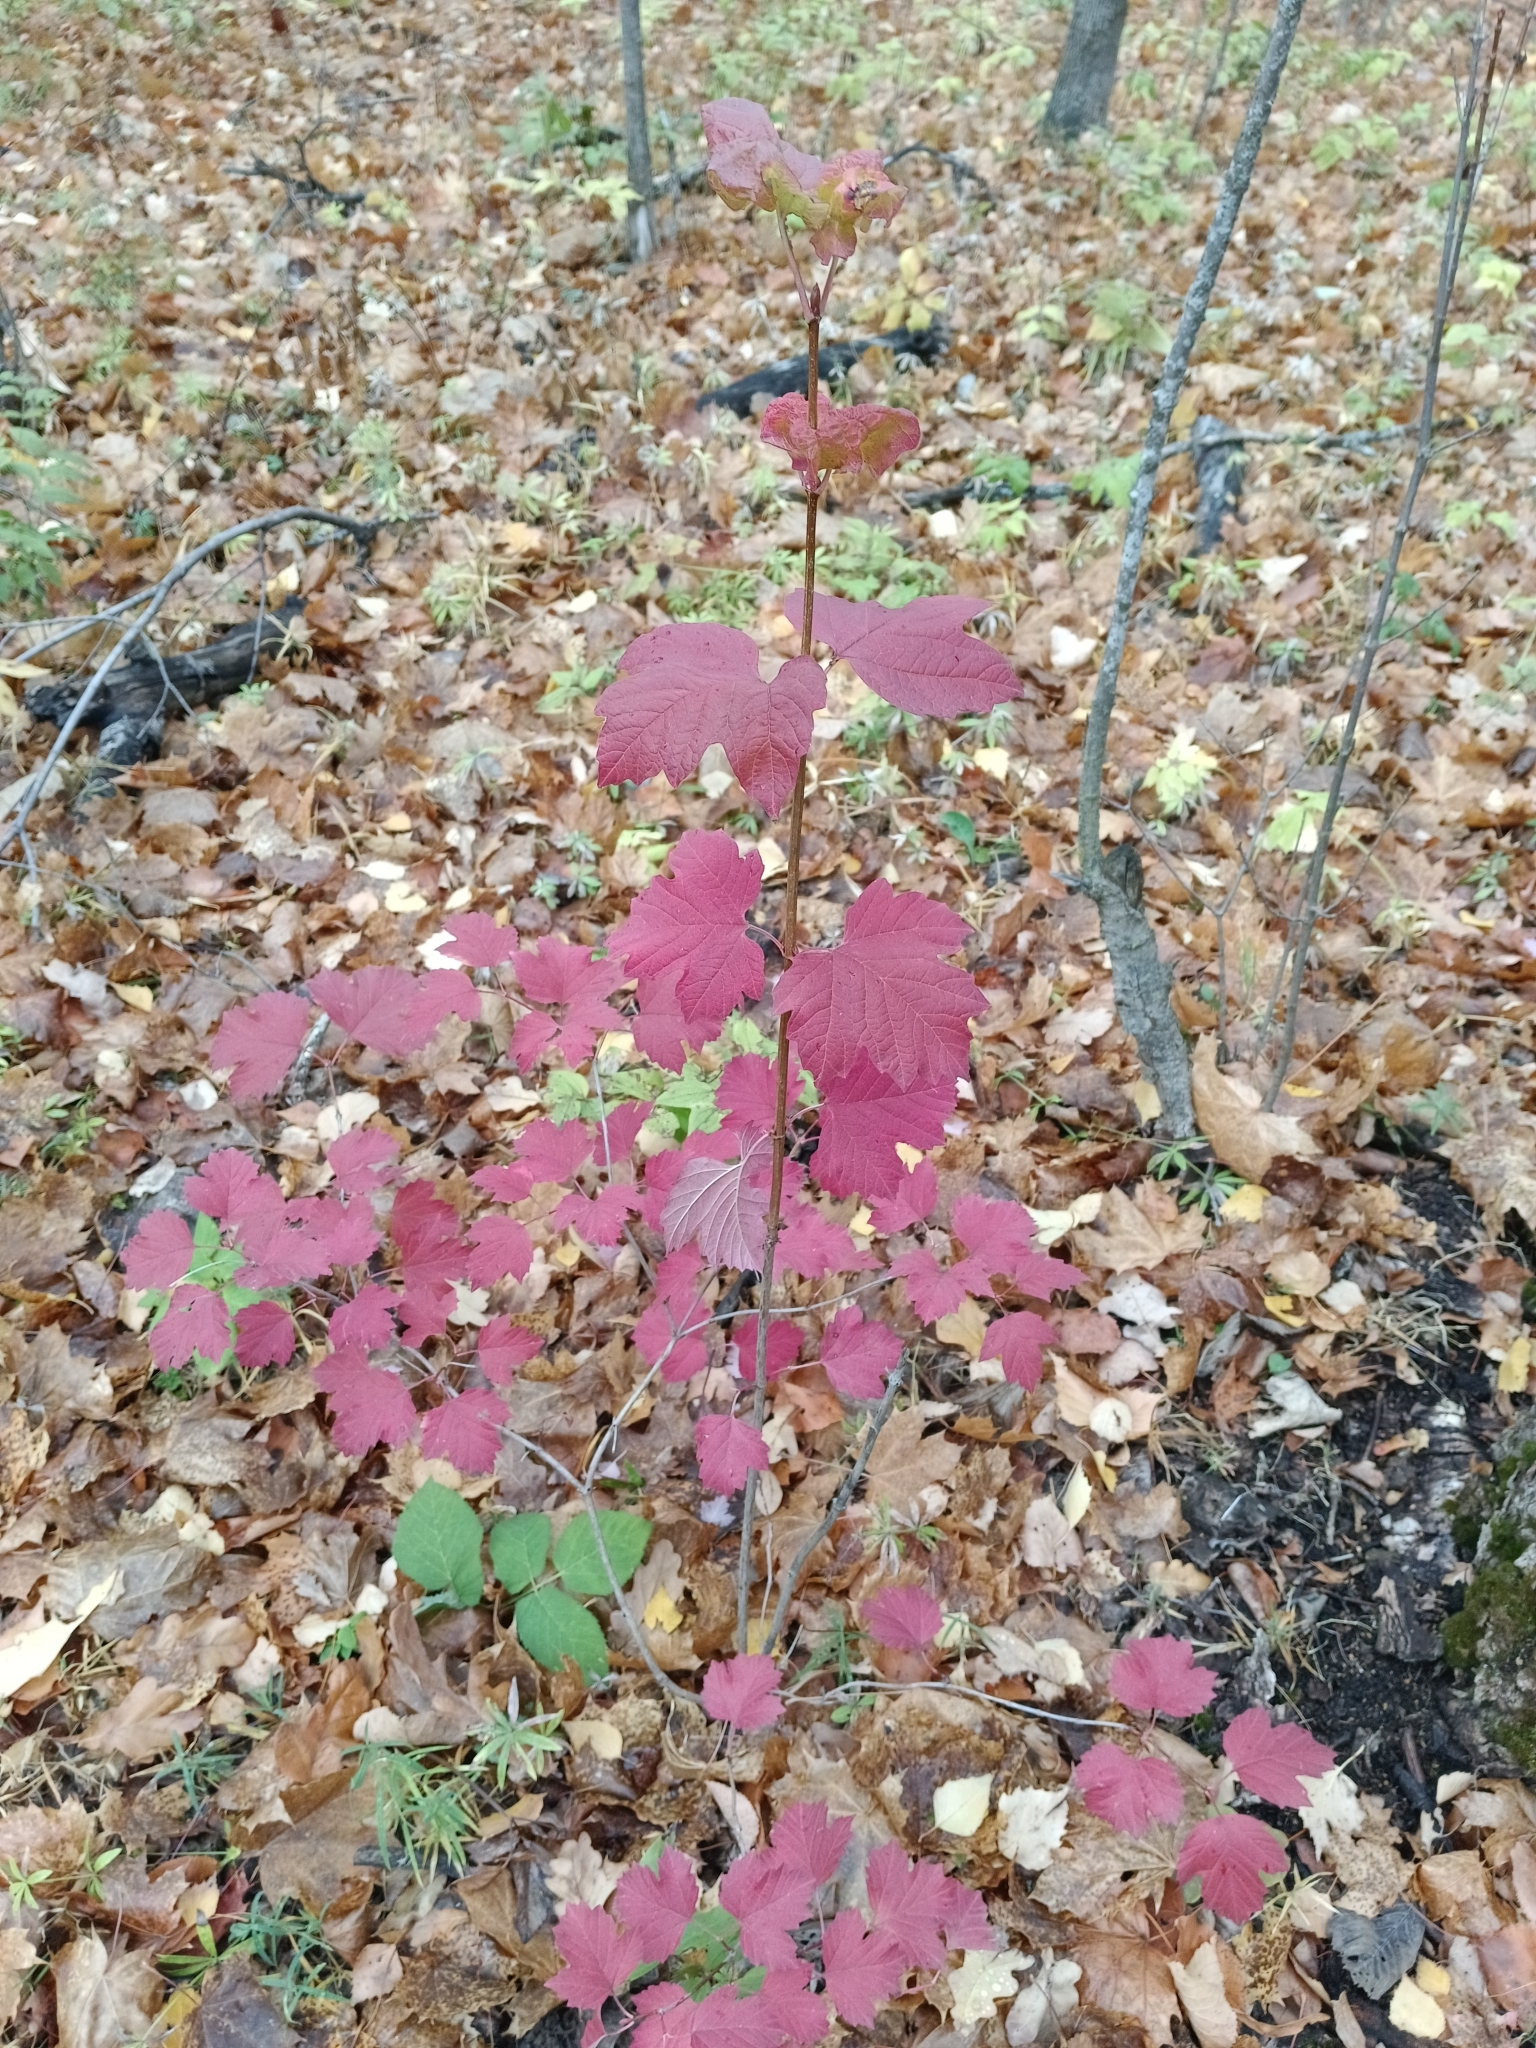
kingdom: Plantae
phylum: Tracheophyta
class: Magnoliopsida
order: Dipsacales
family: Viburnaceae
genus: Viburnum
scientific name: Viburnum opulus
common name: Guelder-rose
